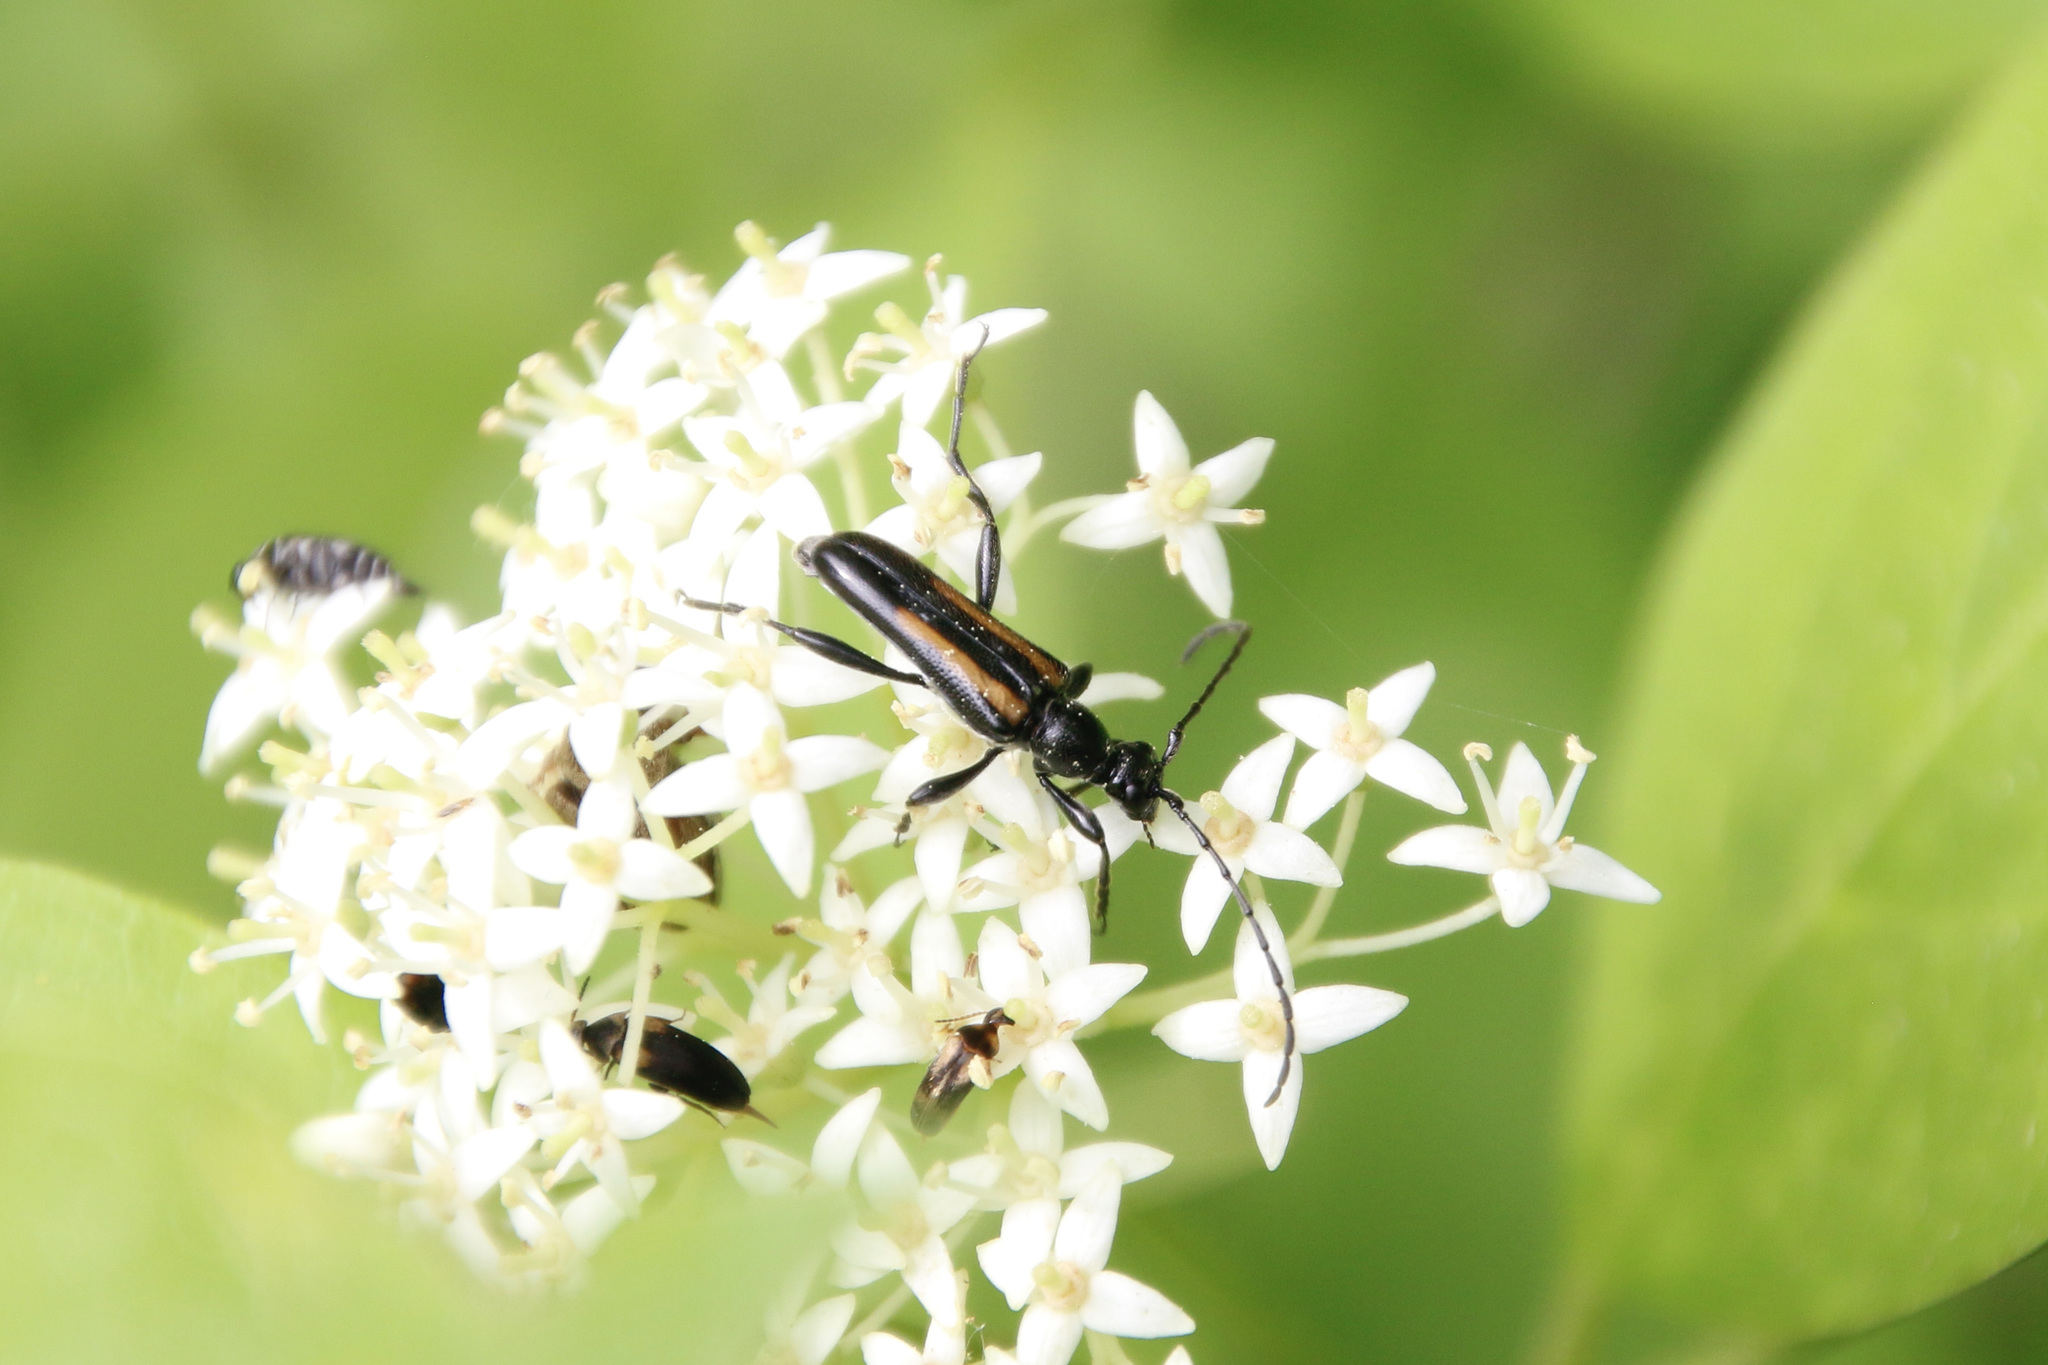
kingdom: Animalia
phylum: Arthropoda
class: Insecta
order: Coleoptera
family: Cerambycidae
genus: Strangalepta
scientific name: Strangalepta abbreviata
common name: Strangalepta flower longhorn beetle
